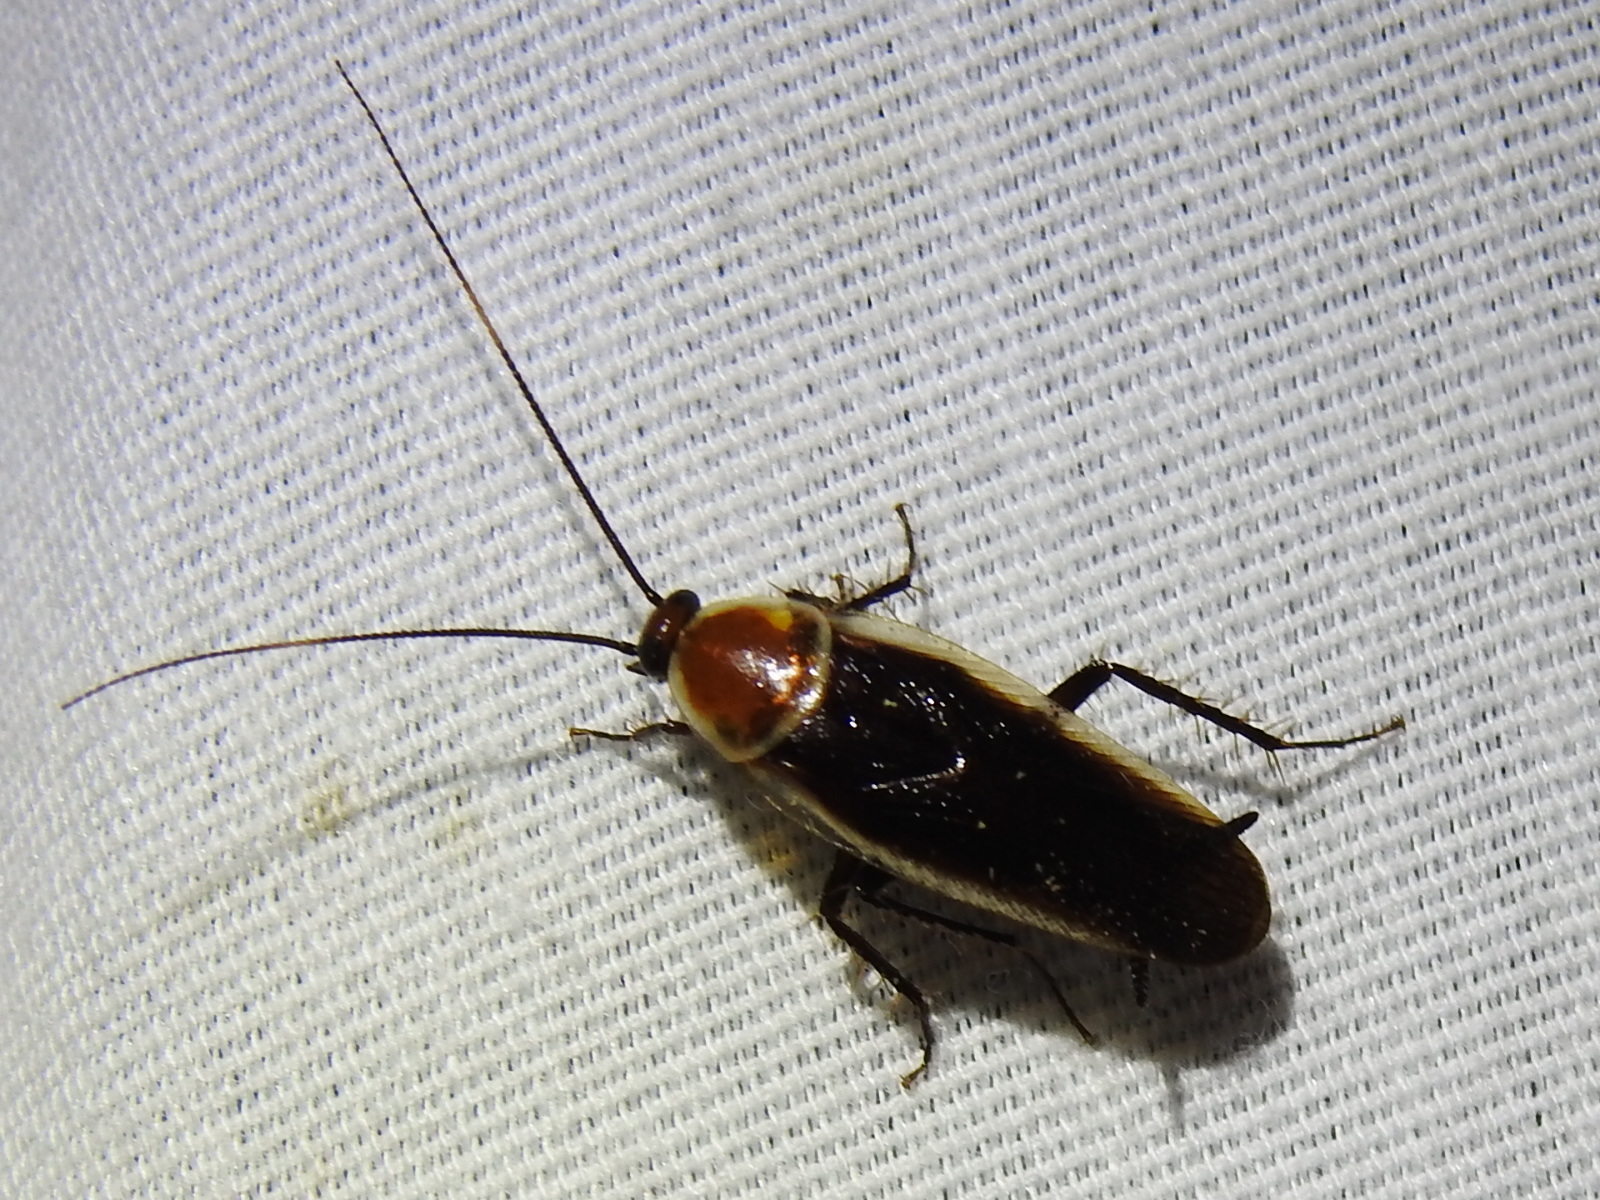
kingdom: Animalia
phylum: Arthropoda
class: Insecta
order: Blattodea
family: Ectobiidae
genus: Pseudomops
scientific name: Pseudomops septentrionalis
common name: Pale-bordered field cockroach
